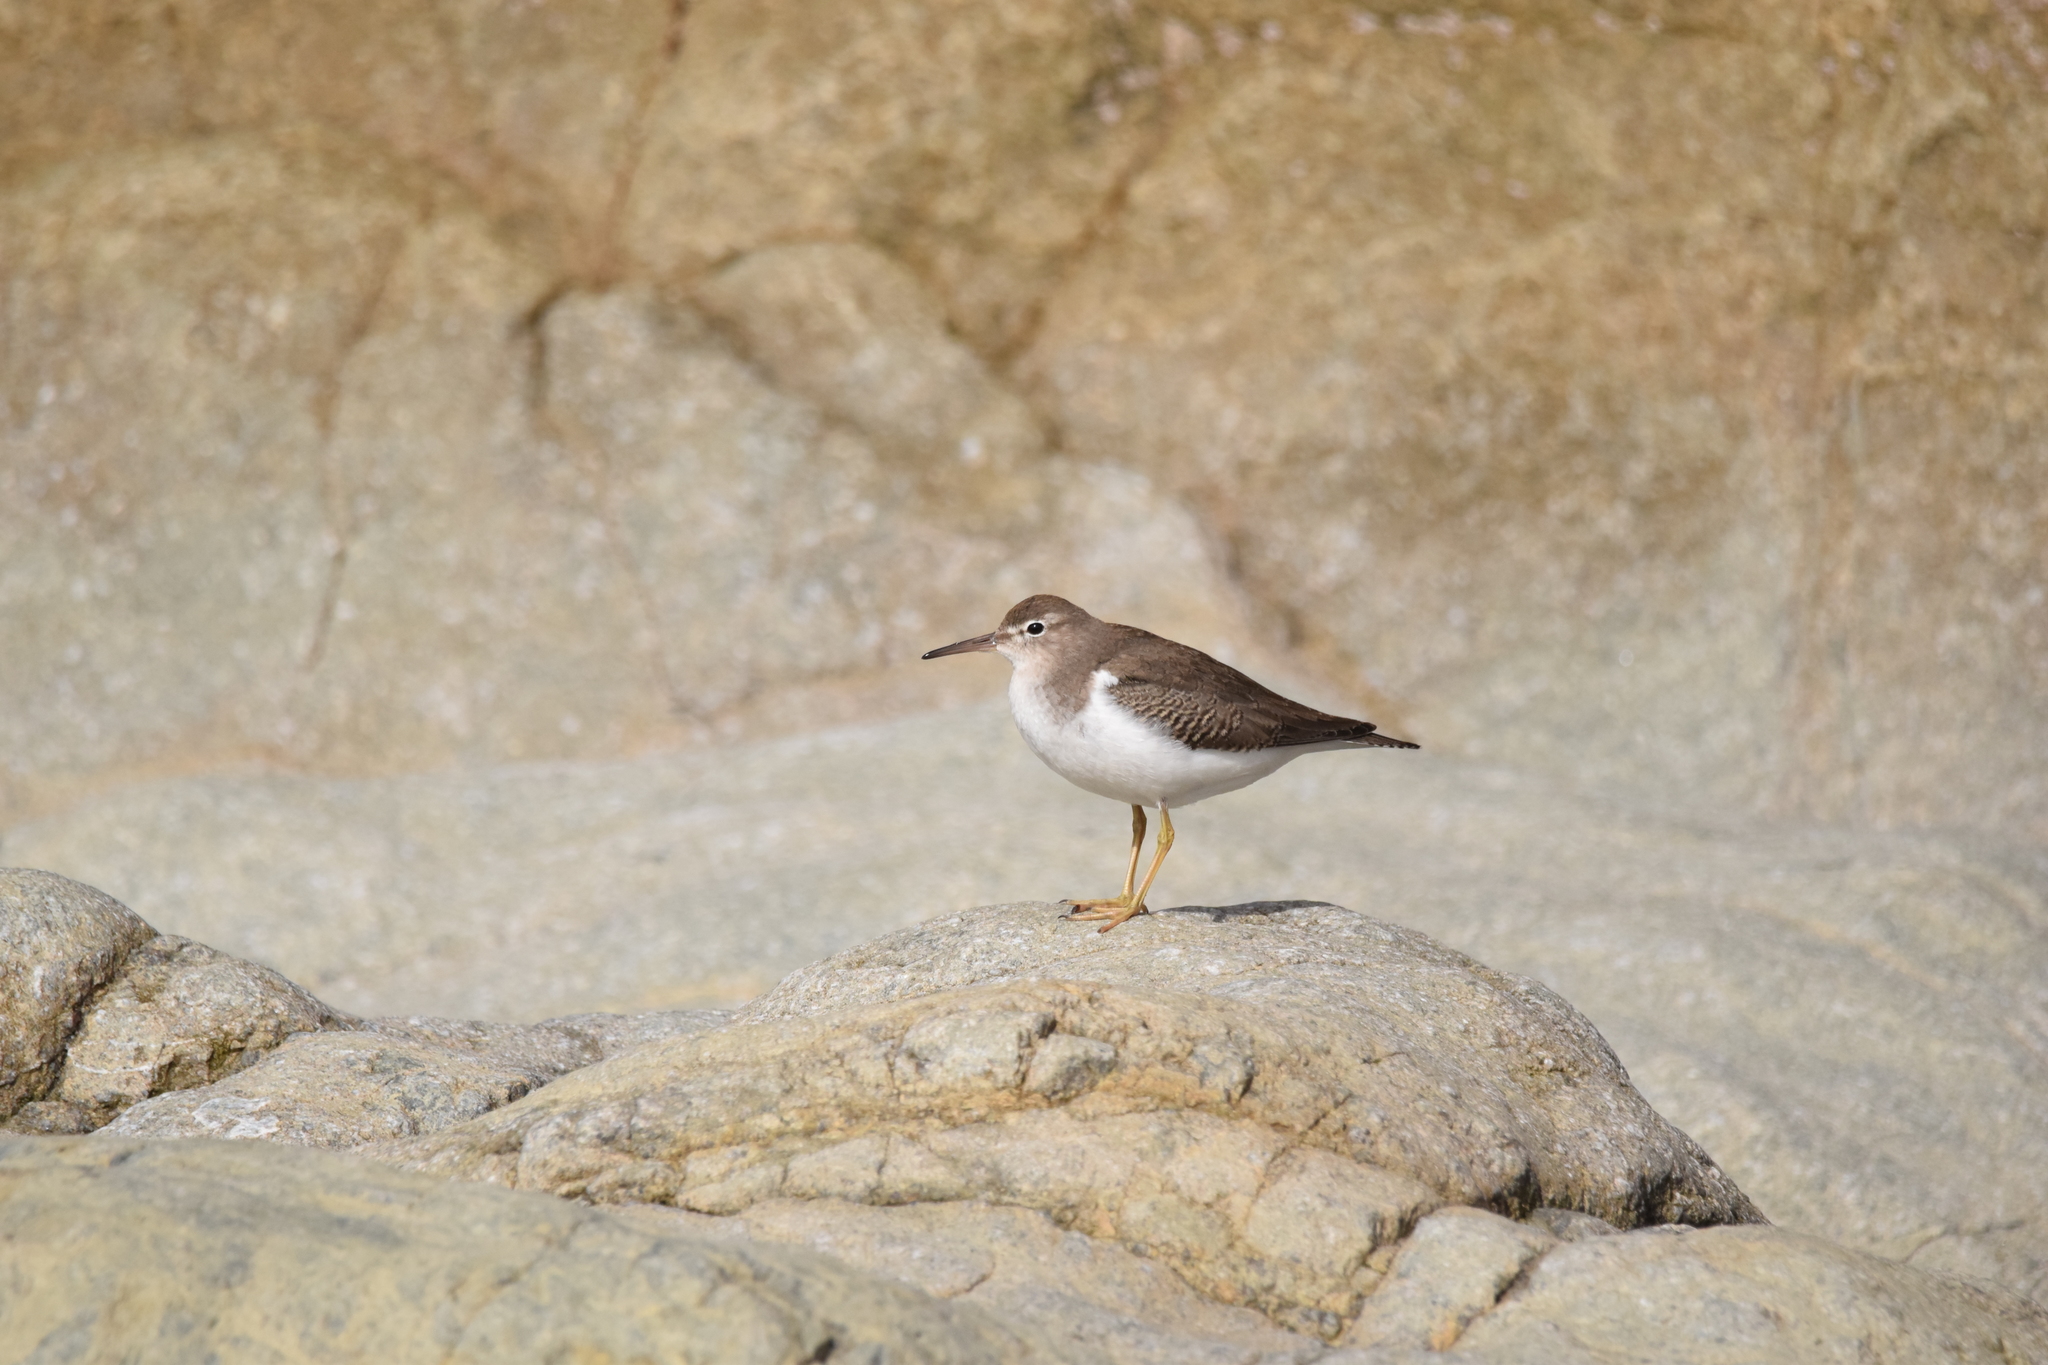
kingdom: Animalia
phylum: Chordata
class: Aves
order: Charadriiformes
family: Scolopacidae
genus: Actitis
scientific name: Actitis macularius
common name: Spotted sandpiper
